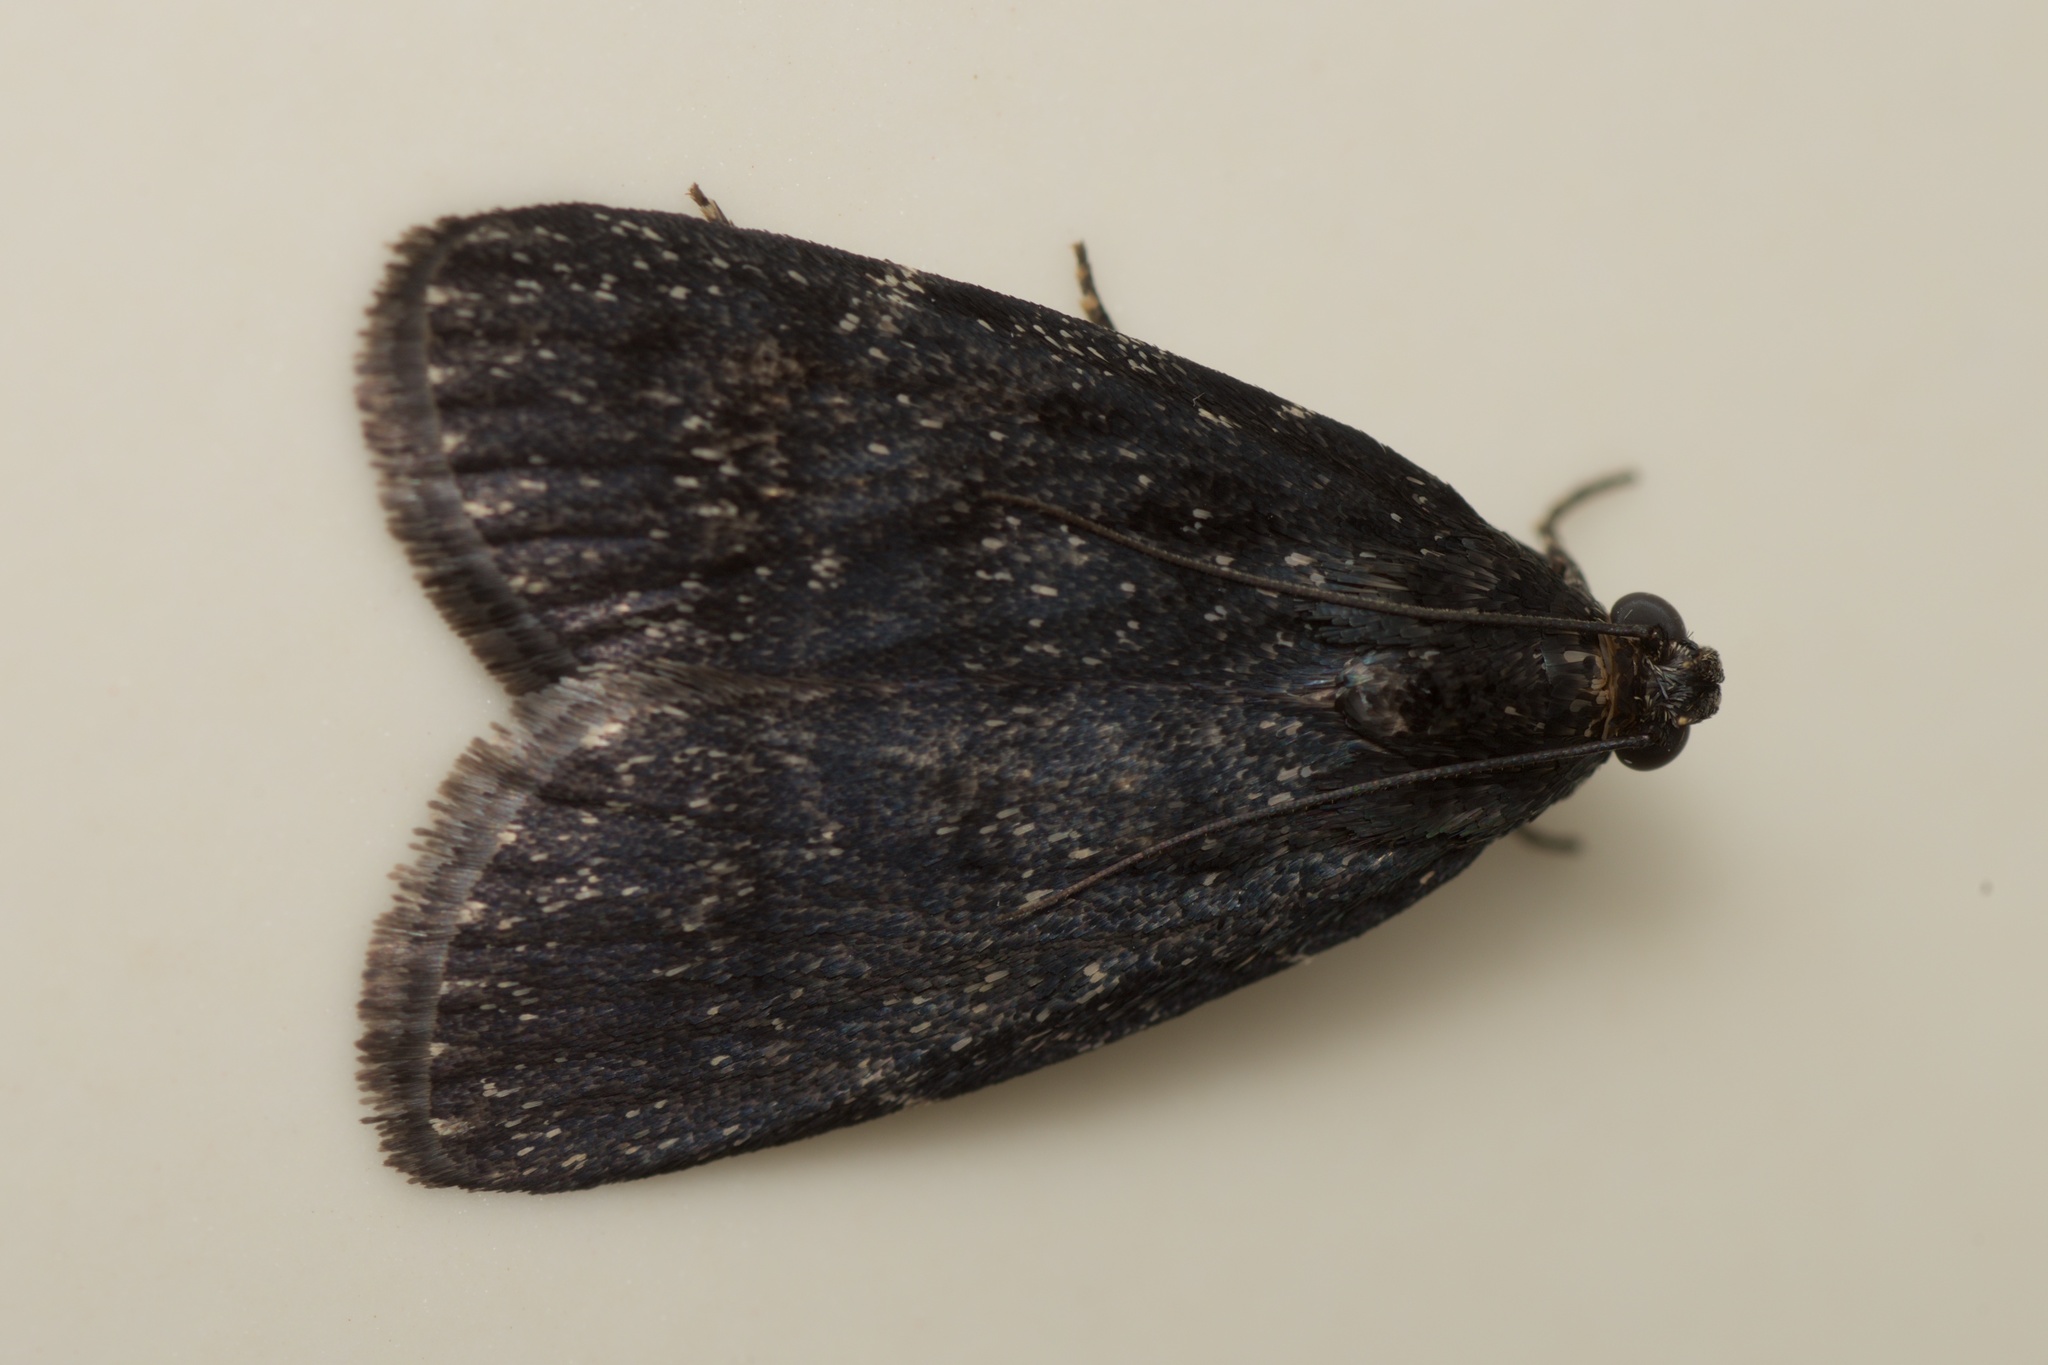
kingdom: Animalia
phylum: Arthropoda
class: Insecta
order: Lepidoptera
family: Pyralidae
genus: Stericta
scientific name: Stericta carbonalis
